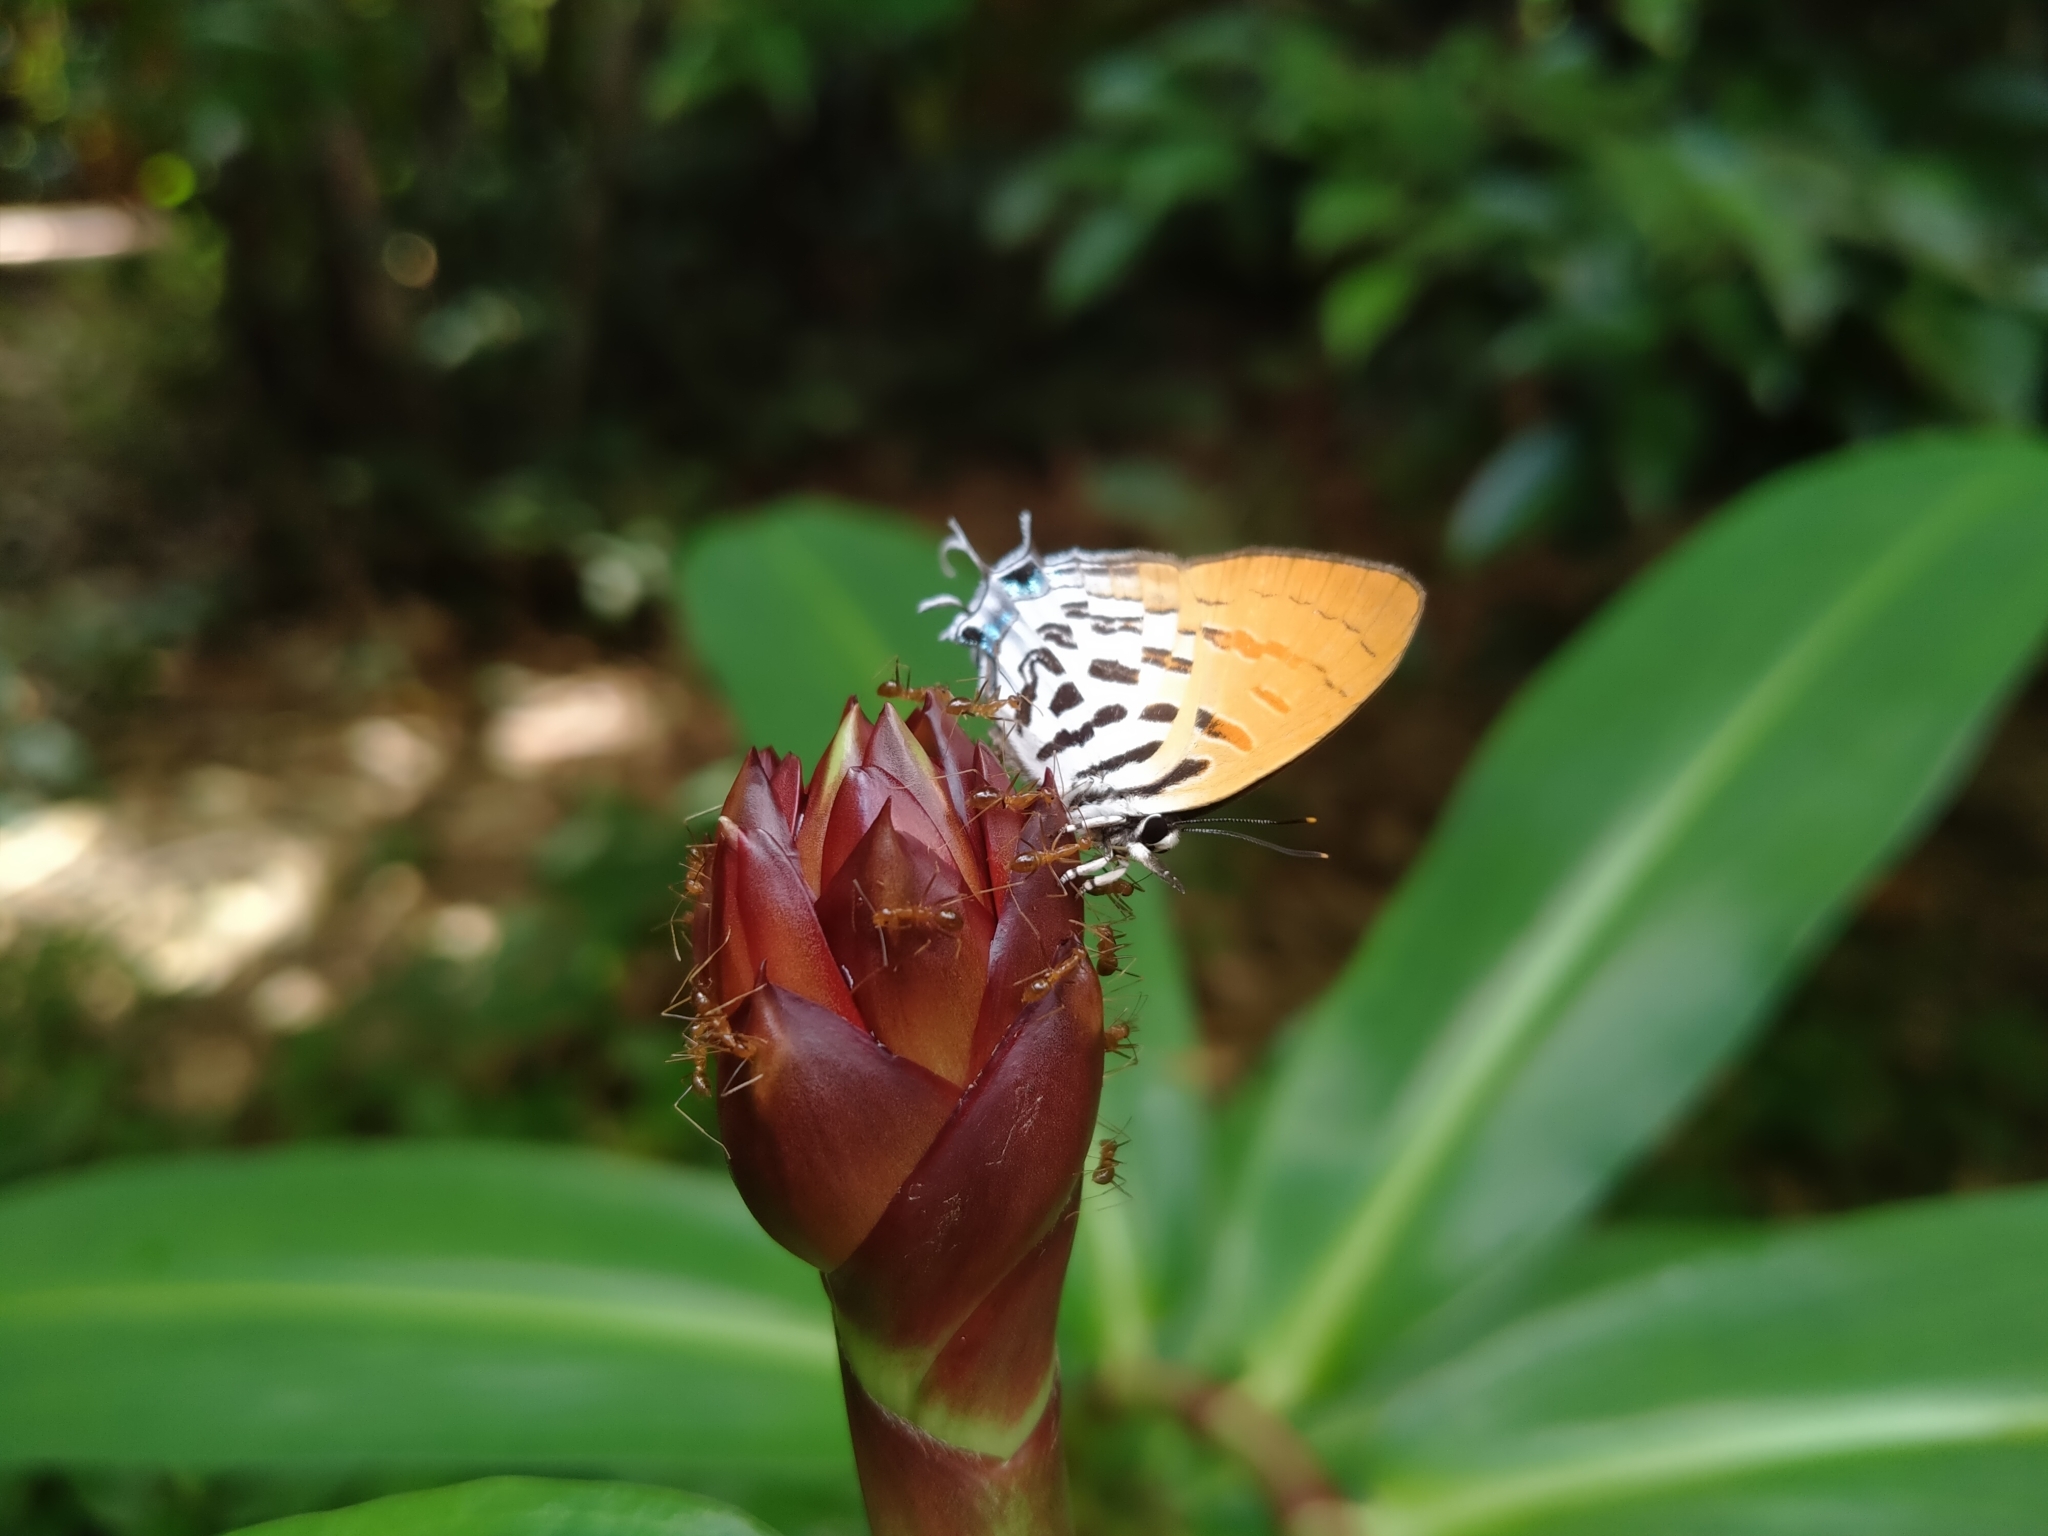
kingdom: Animalia
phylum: Arthropoda
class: Insecta
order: Lepidoptera
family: Lycaenidae
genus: Drupadia
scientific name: Drupadia ravindra
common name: Common posy
